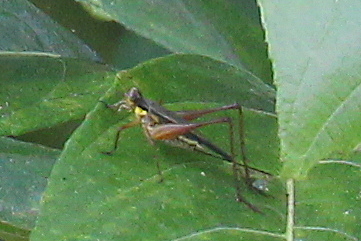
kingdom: Animalia
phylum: Arthropoda
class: Insecta
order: Orthoptera
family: Gryllidae
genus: Nisitrus
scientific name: Nisitrus malaya
